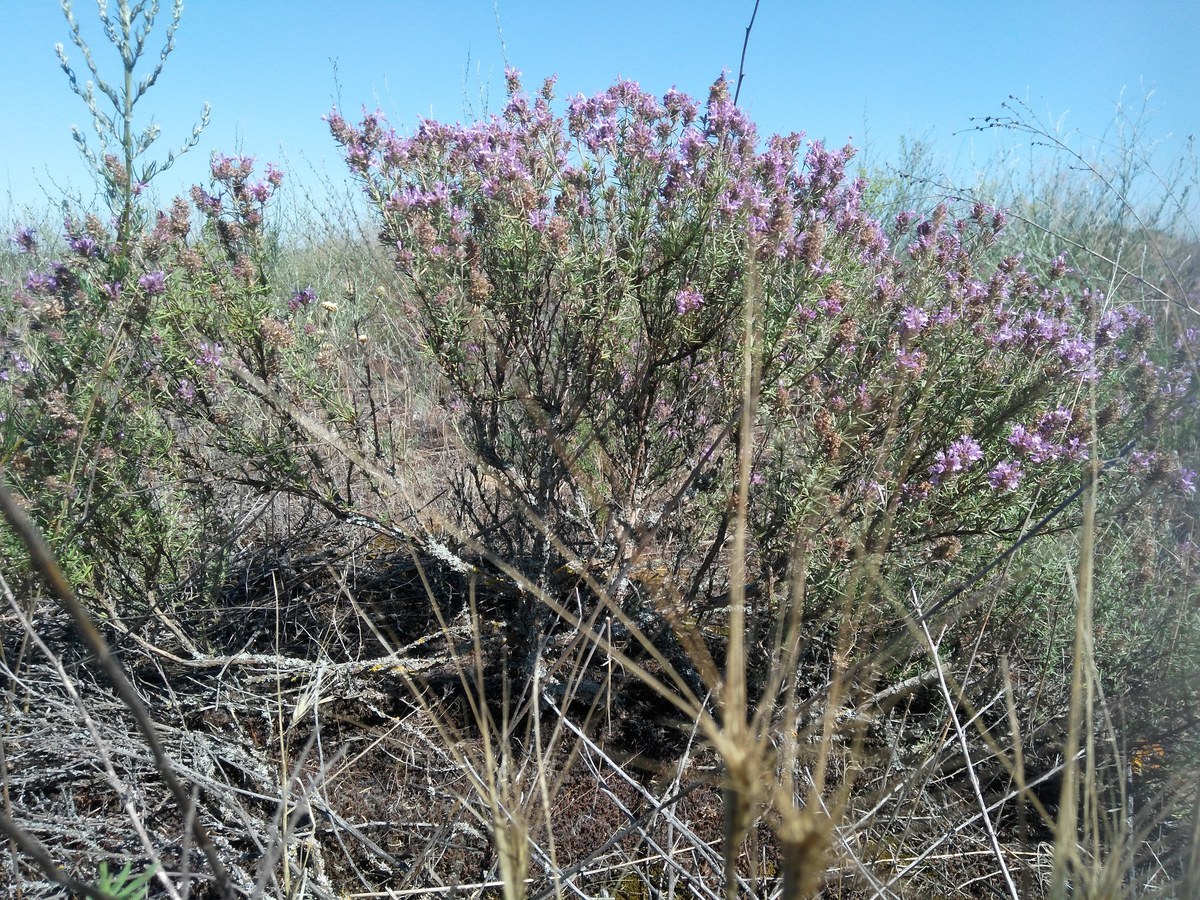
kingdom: Plantae
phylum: Tracheophyta
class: Magnoliopsida
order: Lamiales
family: Lamiaceae
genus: Thymus
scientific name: Thymus pallasianus
